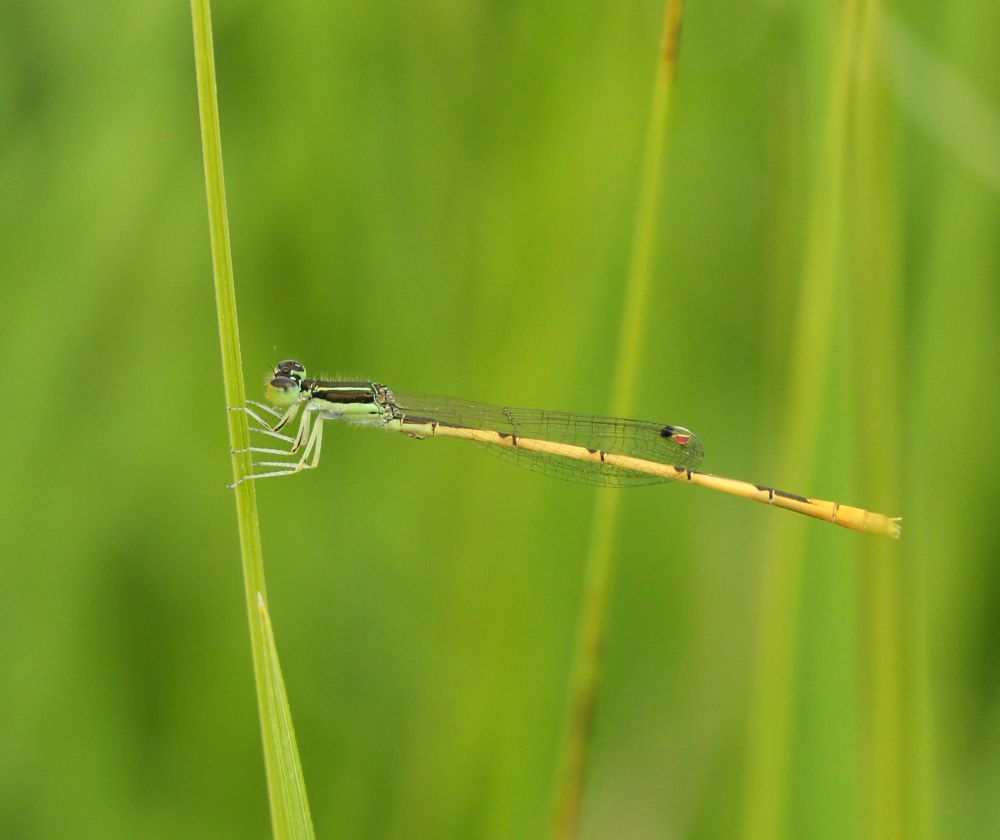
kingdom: Animalia
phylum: Arthropoda
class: Insecta
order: Odonata
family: Coenagrionidae
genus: Ischnura
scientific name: Ischnura hastata
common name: Citrine forktail
